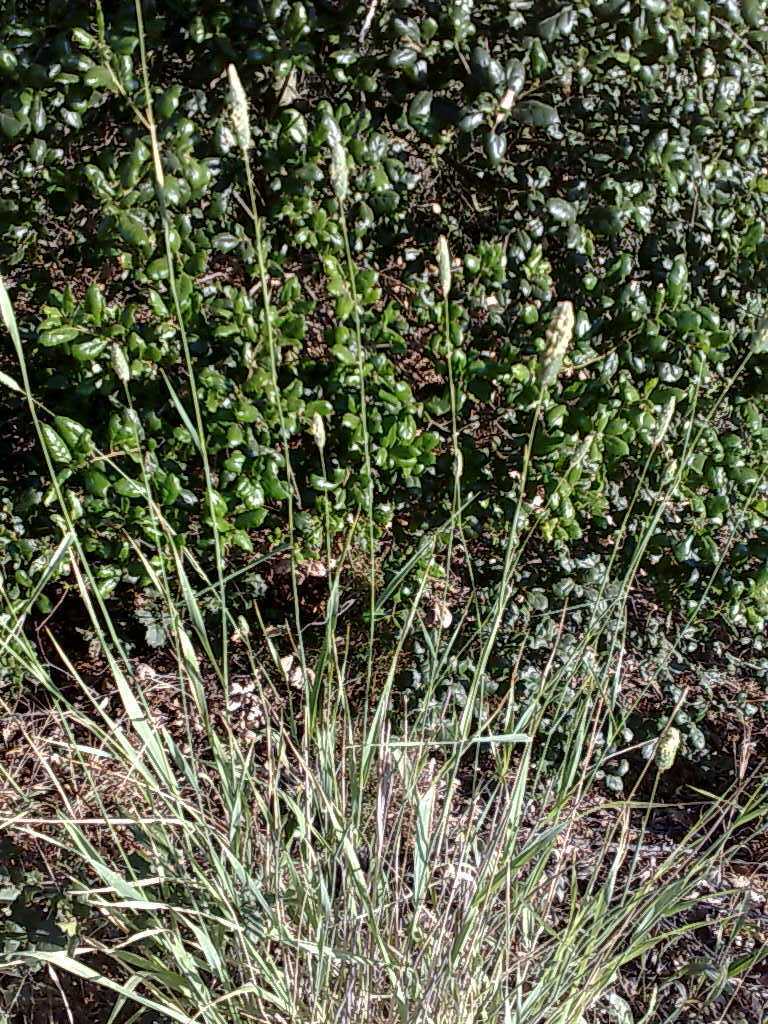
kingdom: Plantae
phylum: Tracheophyta
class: Magnoliopsida
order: Fagales
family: Fagaceae
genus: Quercus
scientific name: Quercus agrifolia
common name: California live oak
